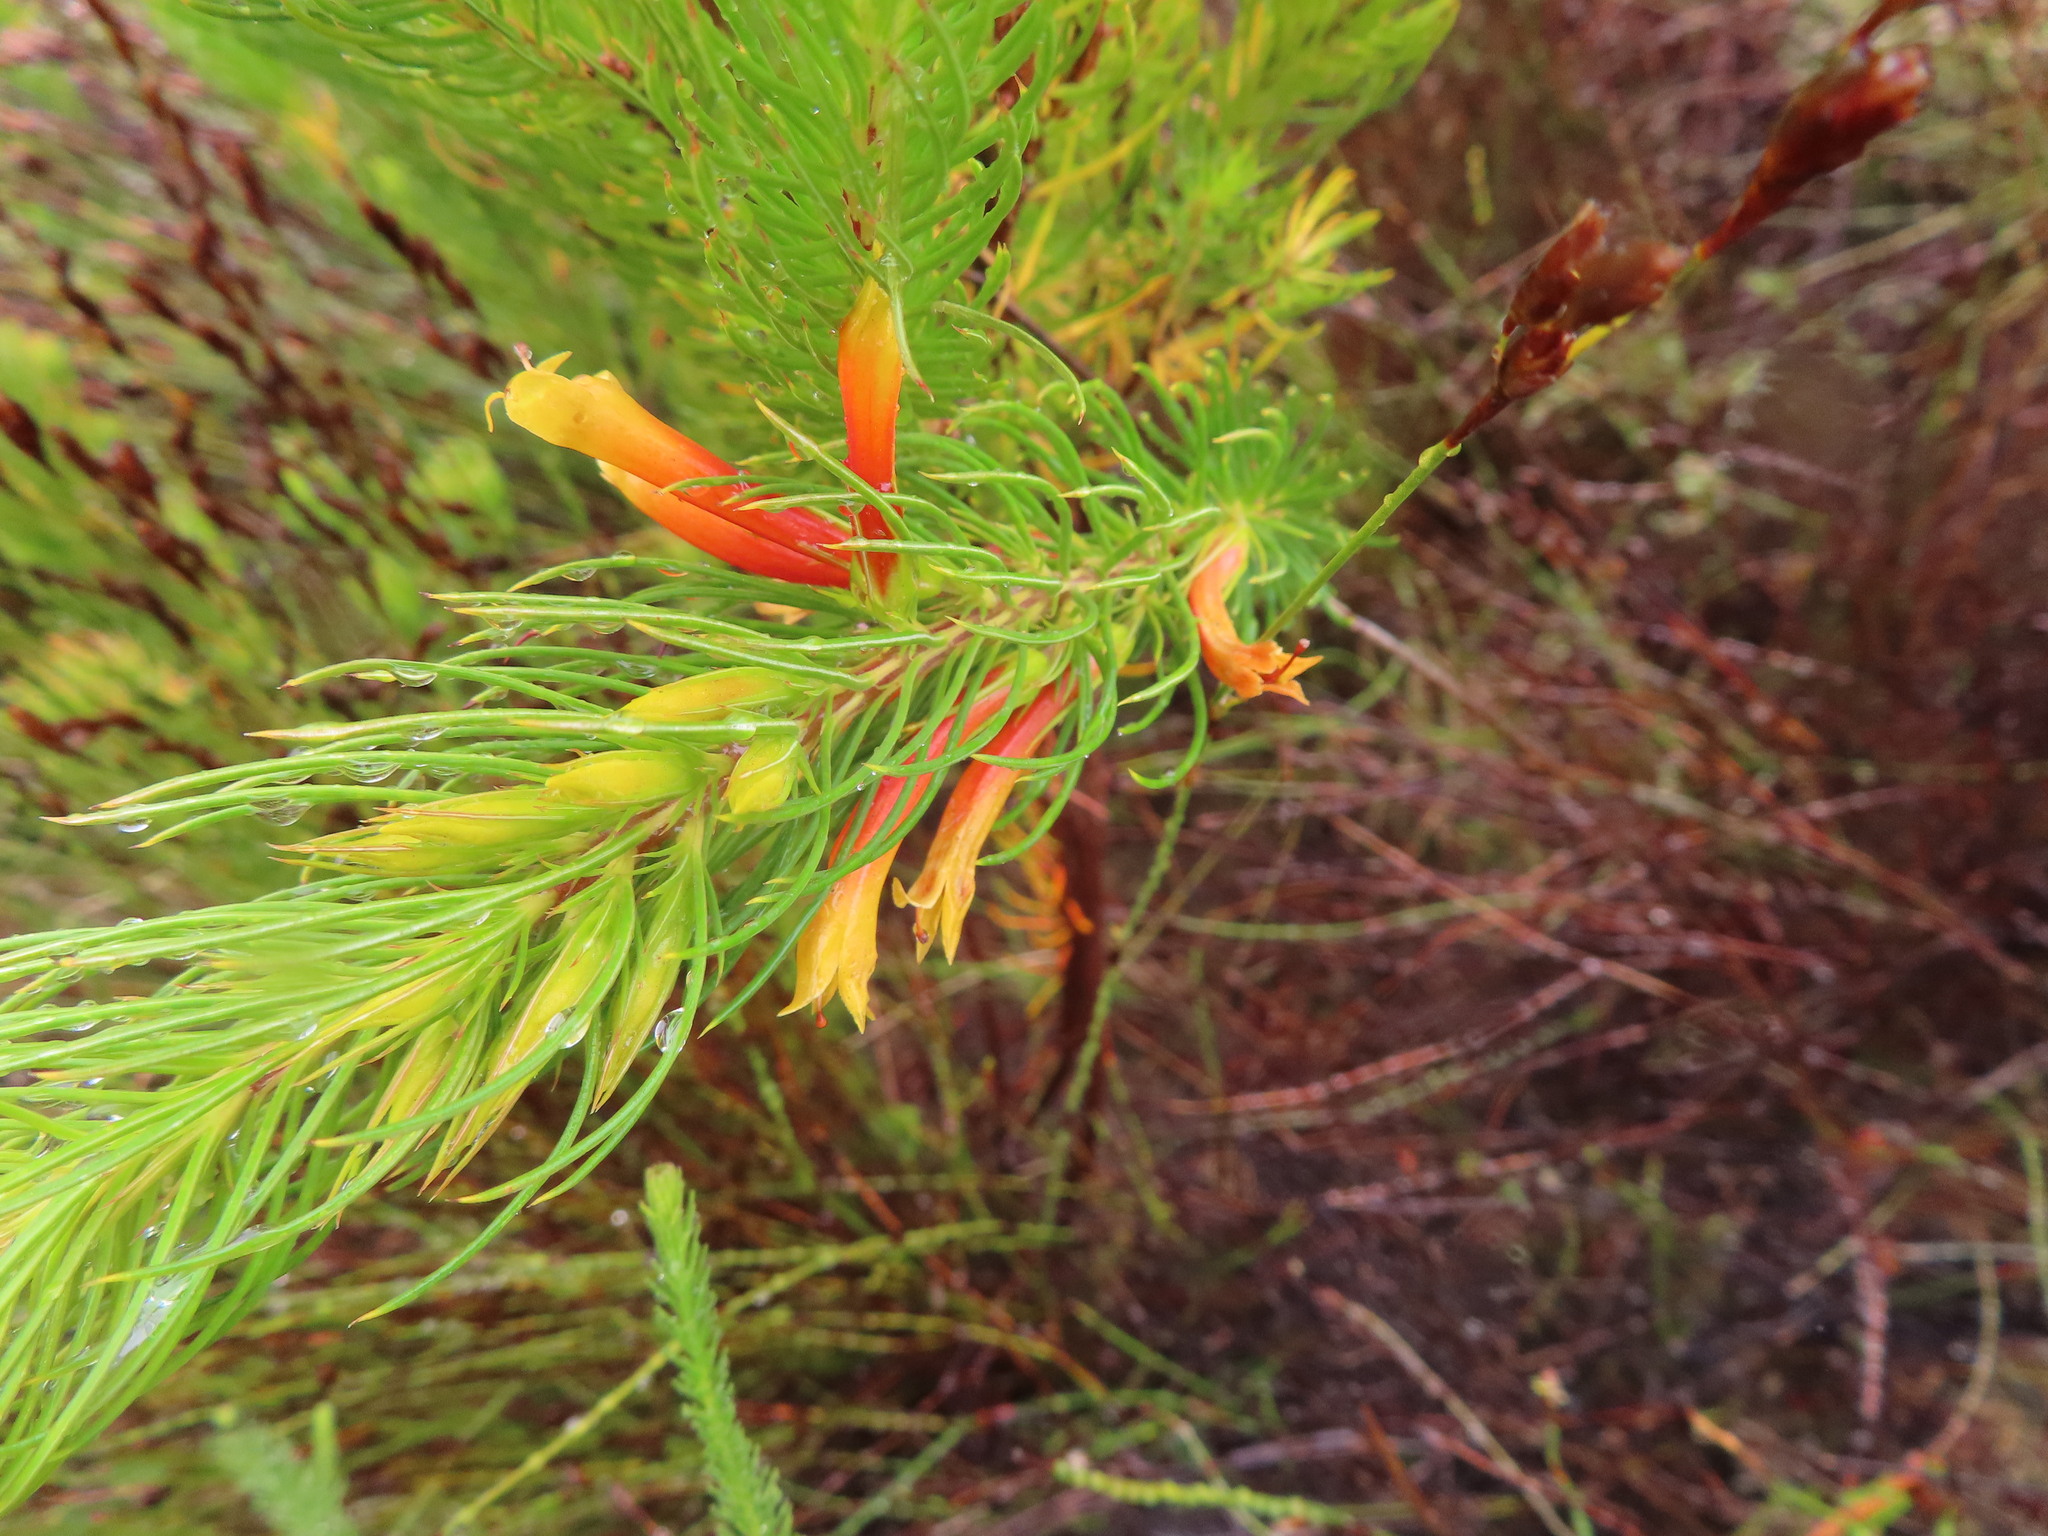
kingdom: Plantae
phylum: Tracheophyta
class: Magnoliopsida
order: Ericales
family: Ericaceae
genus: Erica
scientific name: Erica grandiflora
